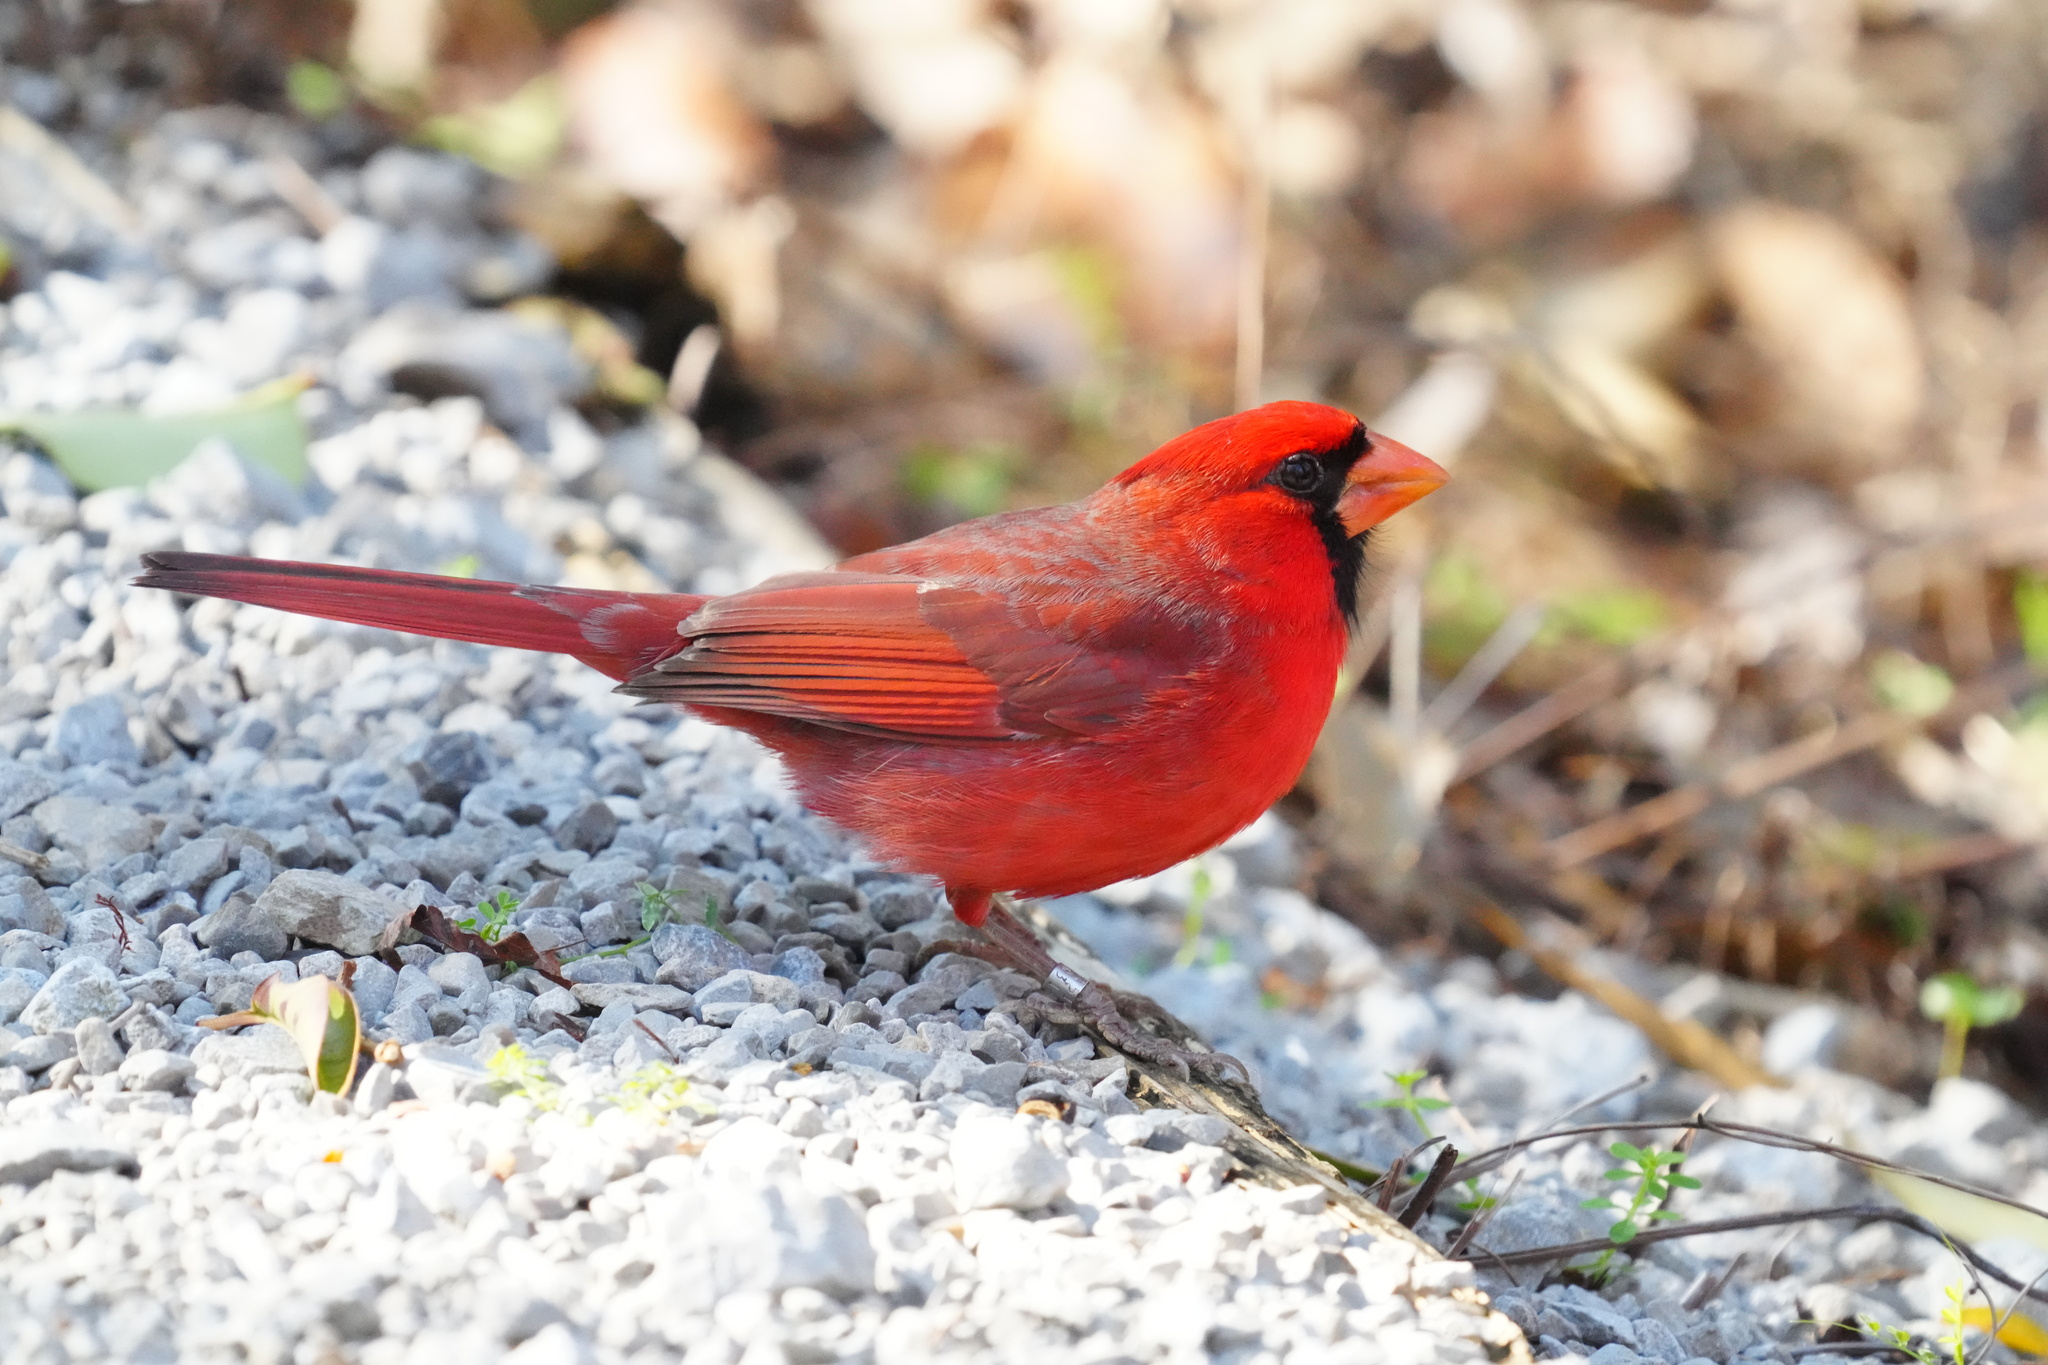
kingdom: Animalia
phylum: Chordata
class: Aves
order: Passeriformes
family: Cardinalidae
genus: Cardinalis
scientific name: Cardinalis cardinalis
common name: Northern cardinal
